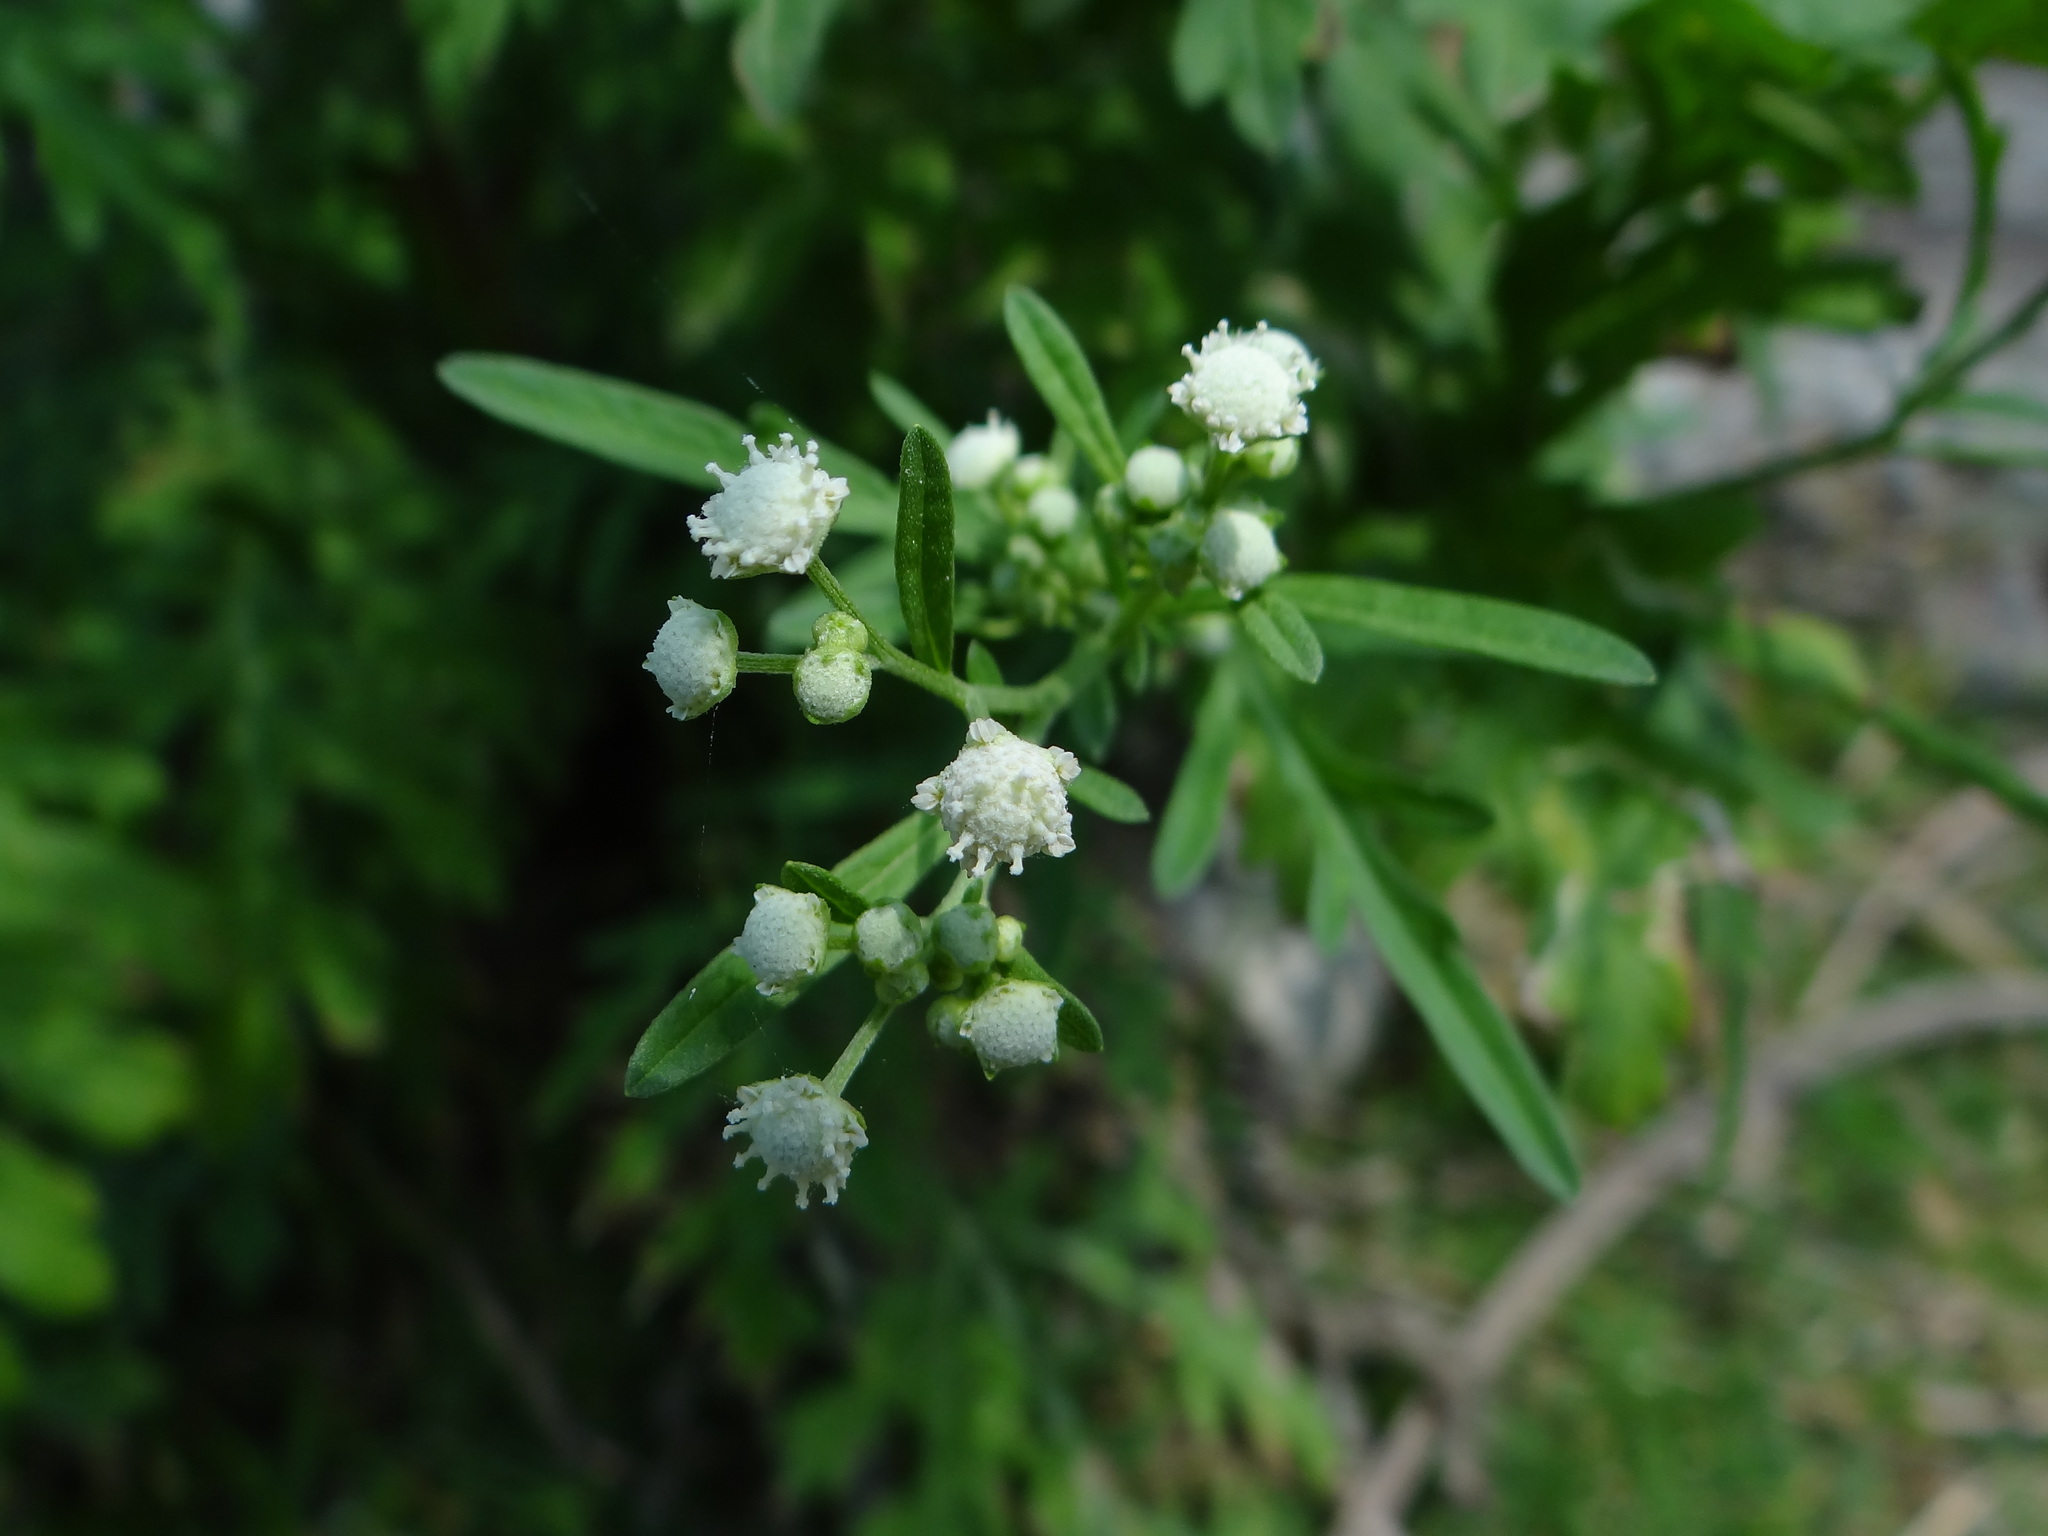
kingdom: Plantae
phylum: Tracheophyta
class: Magnoliopsida
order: Asterales
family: Asteraceae
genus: Parthenium
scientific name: Parthenium hysterophorus
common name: Santa maria feverfew
